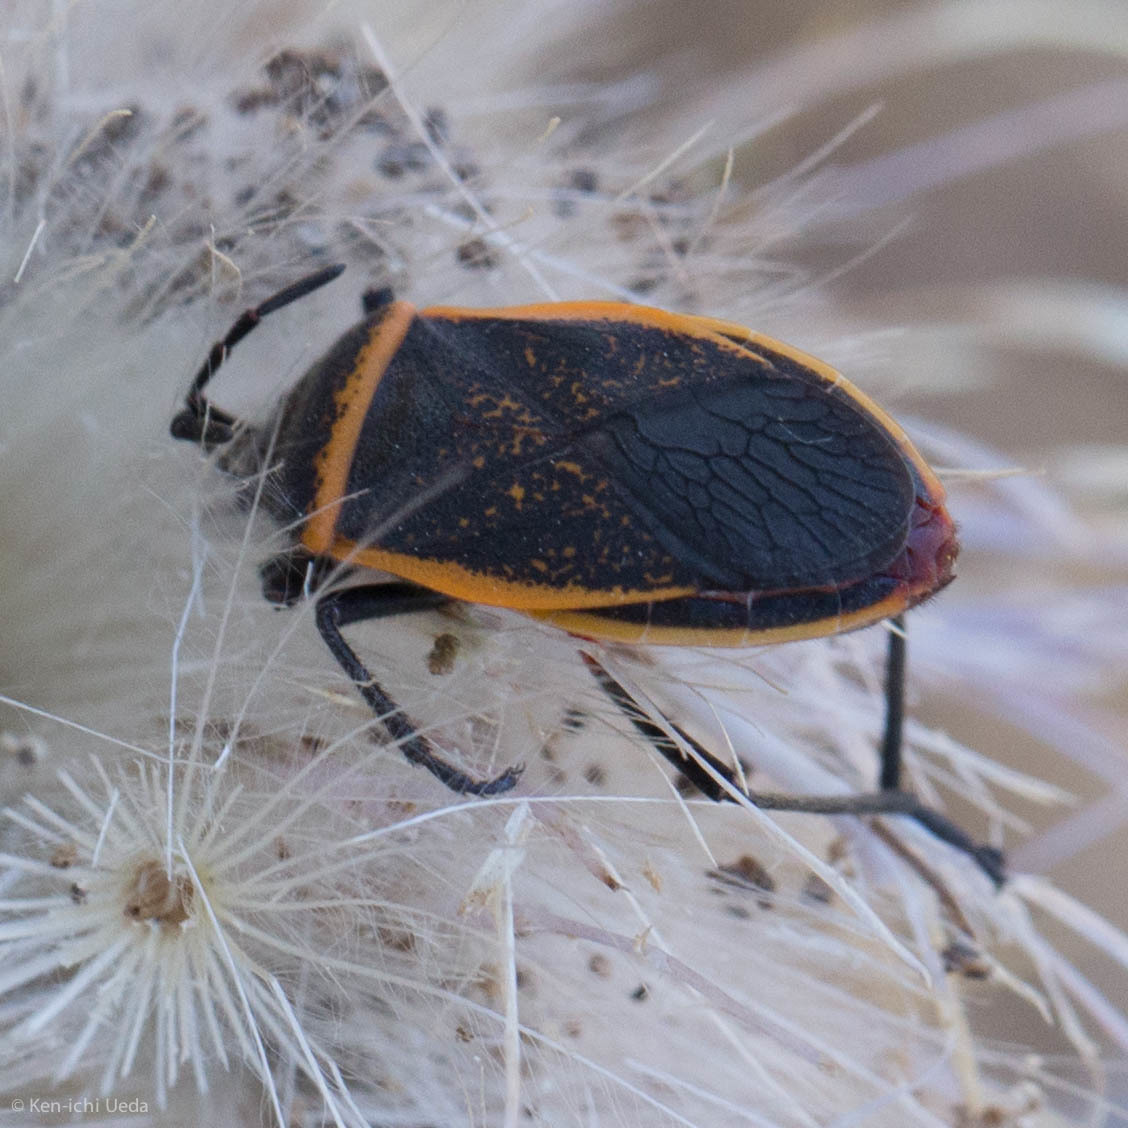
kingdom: Animalia
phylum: Arthropoda
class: Insecta
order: Hemiptera
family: Largidae
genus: Largus
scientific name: Largus californicus
